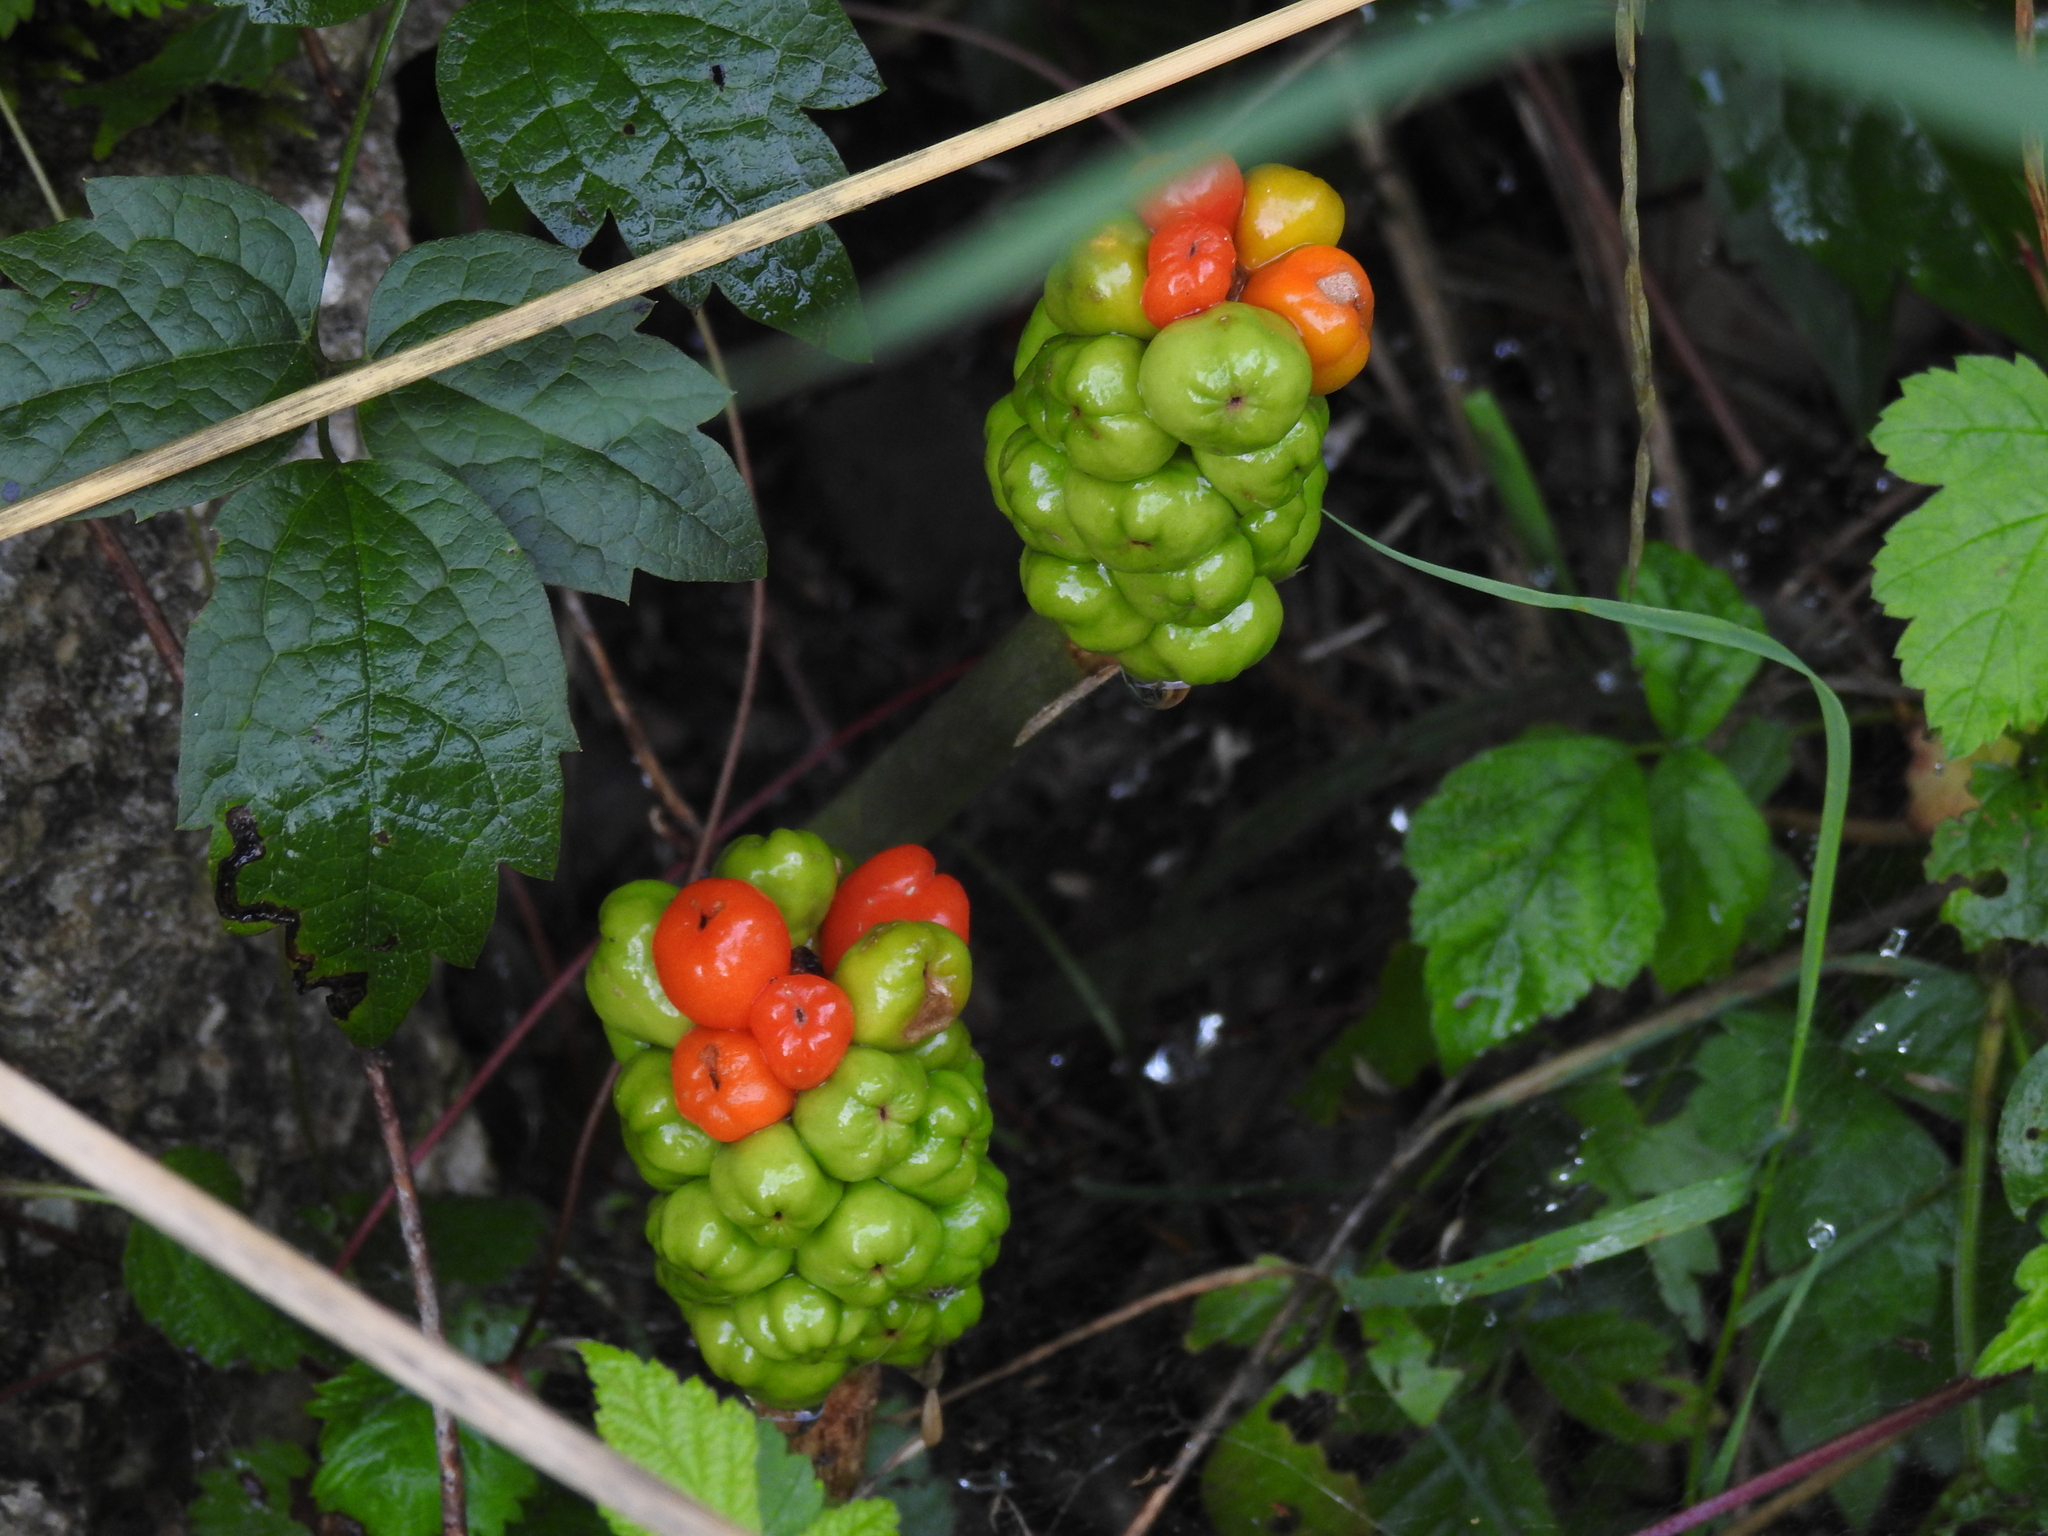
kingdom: Plantae
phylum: Tracheophyta
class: Liliopsida
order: Alismatales
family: Araceae
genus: Arum
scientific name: Arum maculatum
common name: Lords-and-ladies
